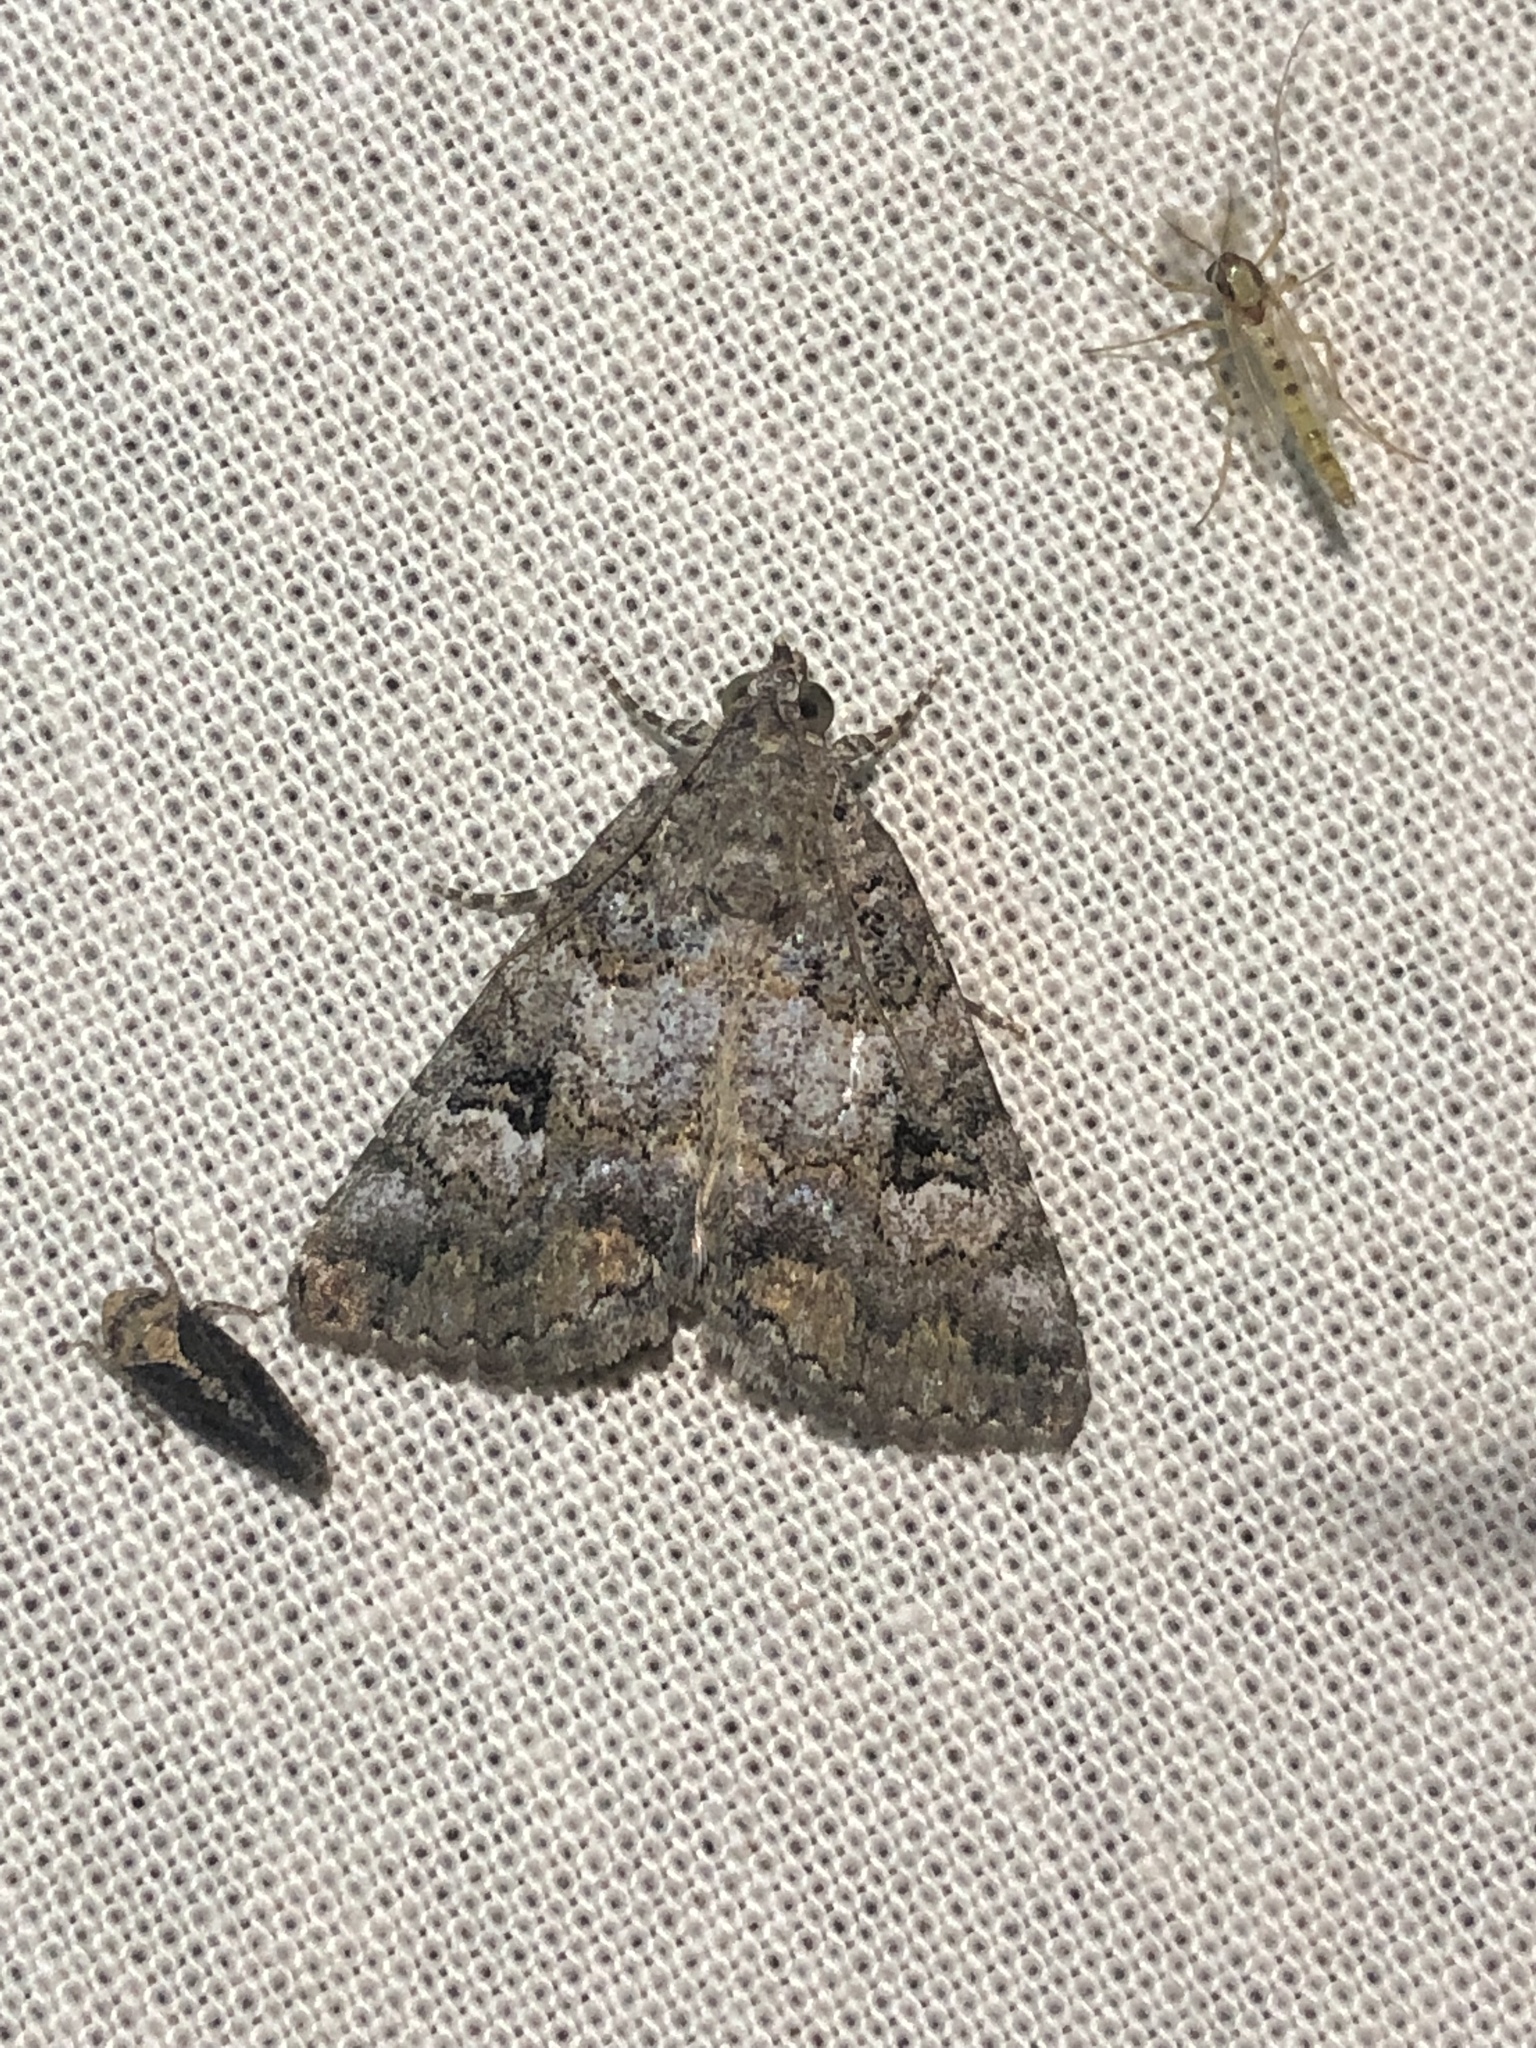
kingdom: Animalia
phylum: Arthropoda
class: Insecta
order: Lepidoptera
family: Erebidae
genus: Eubolina
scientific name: Eubolina impartialis
